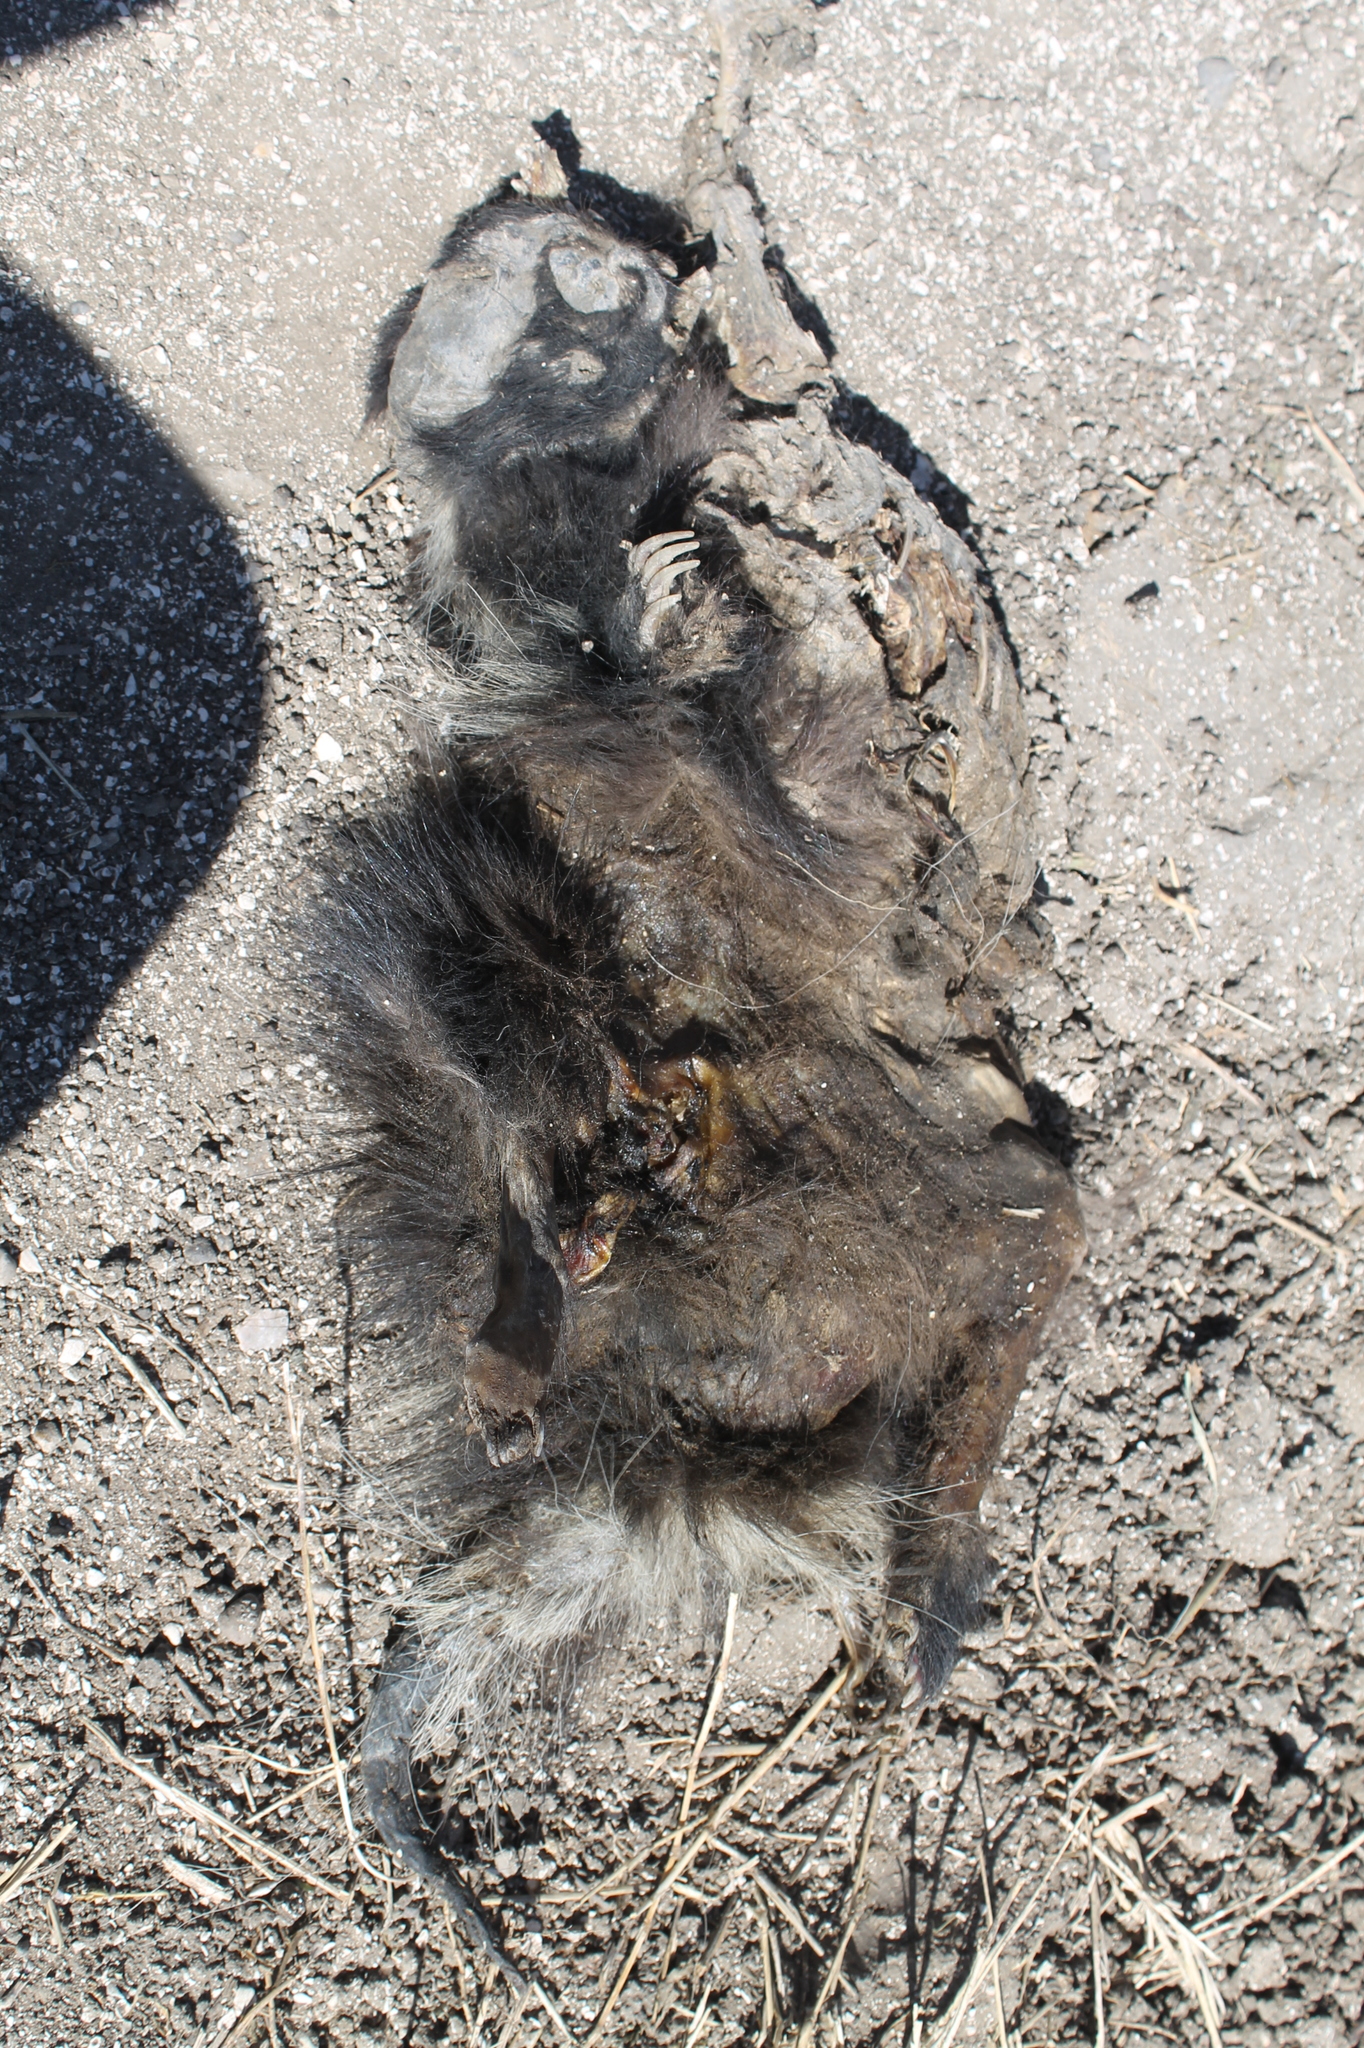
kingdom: Animalia
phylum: Chordata
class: Mammalia
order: Carnivora
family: Mephitidae
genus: Conepatus
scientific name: Conepatus chinga
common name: Molina's hog-nosed skunk
